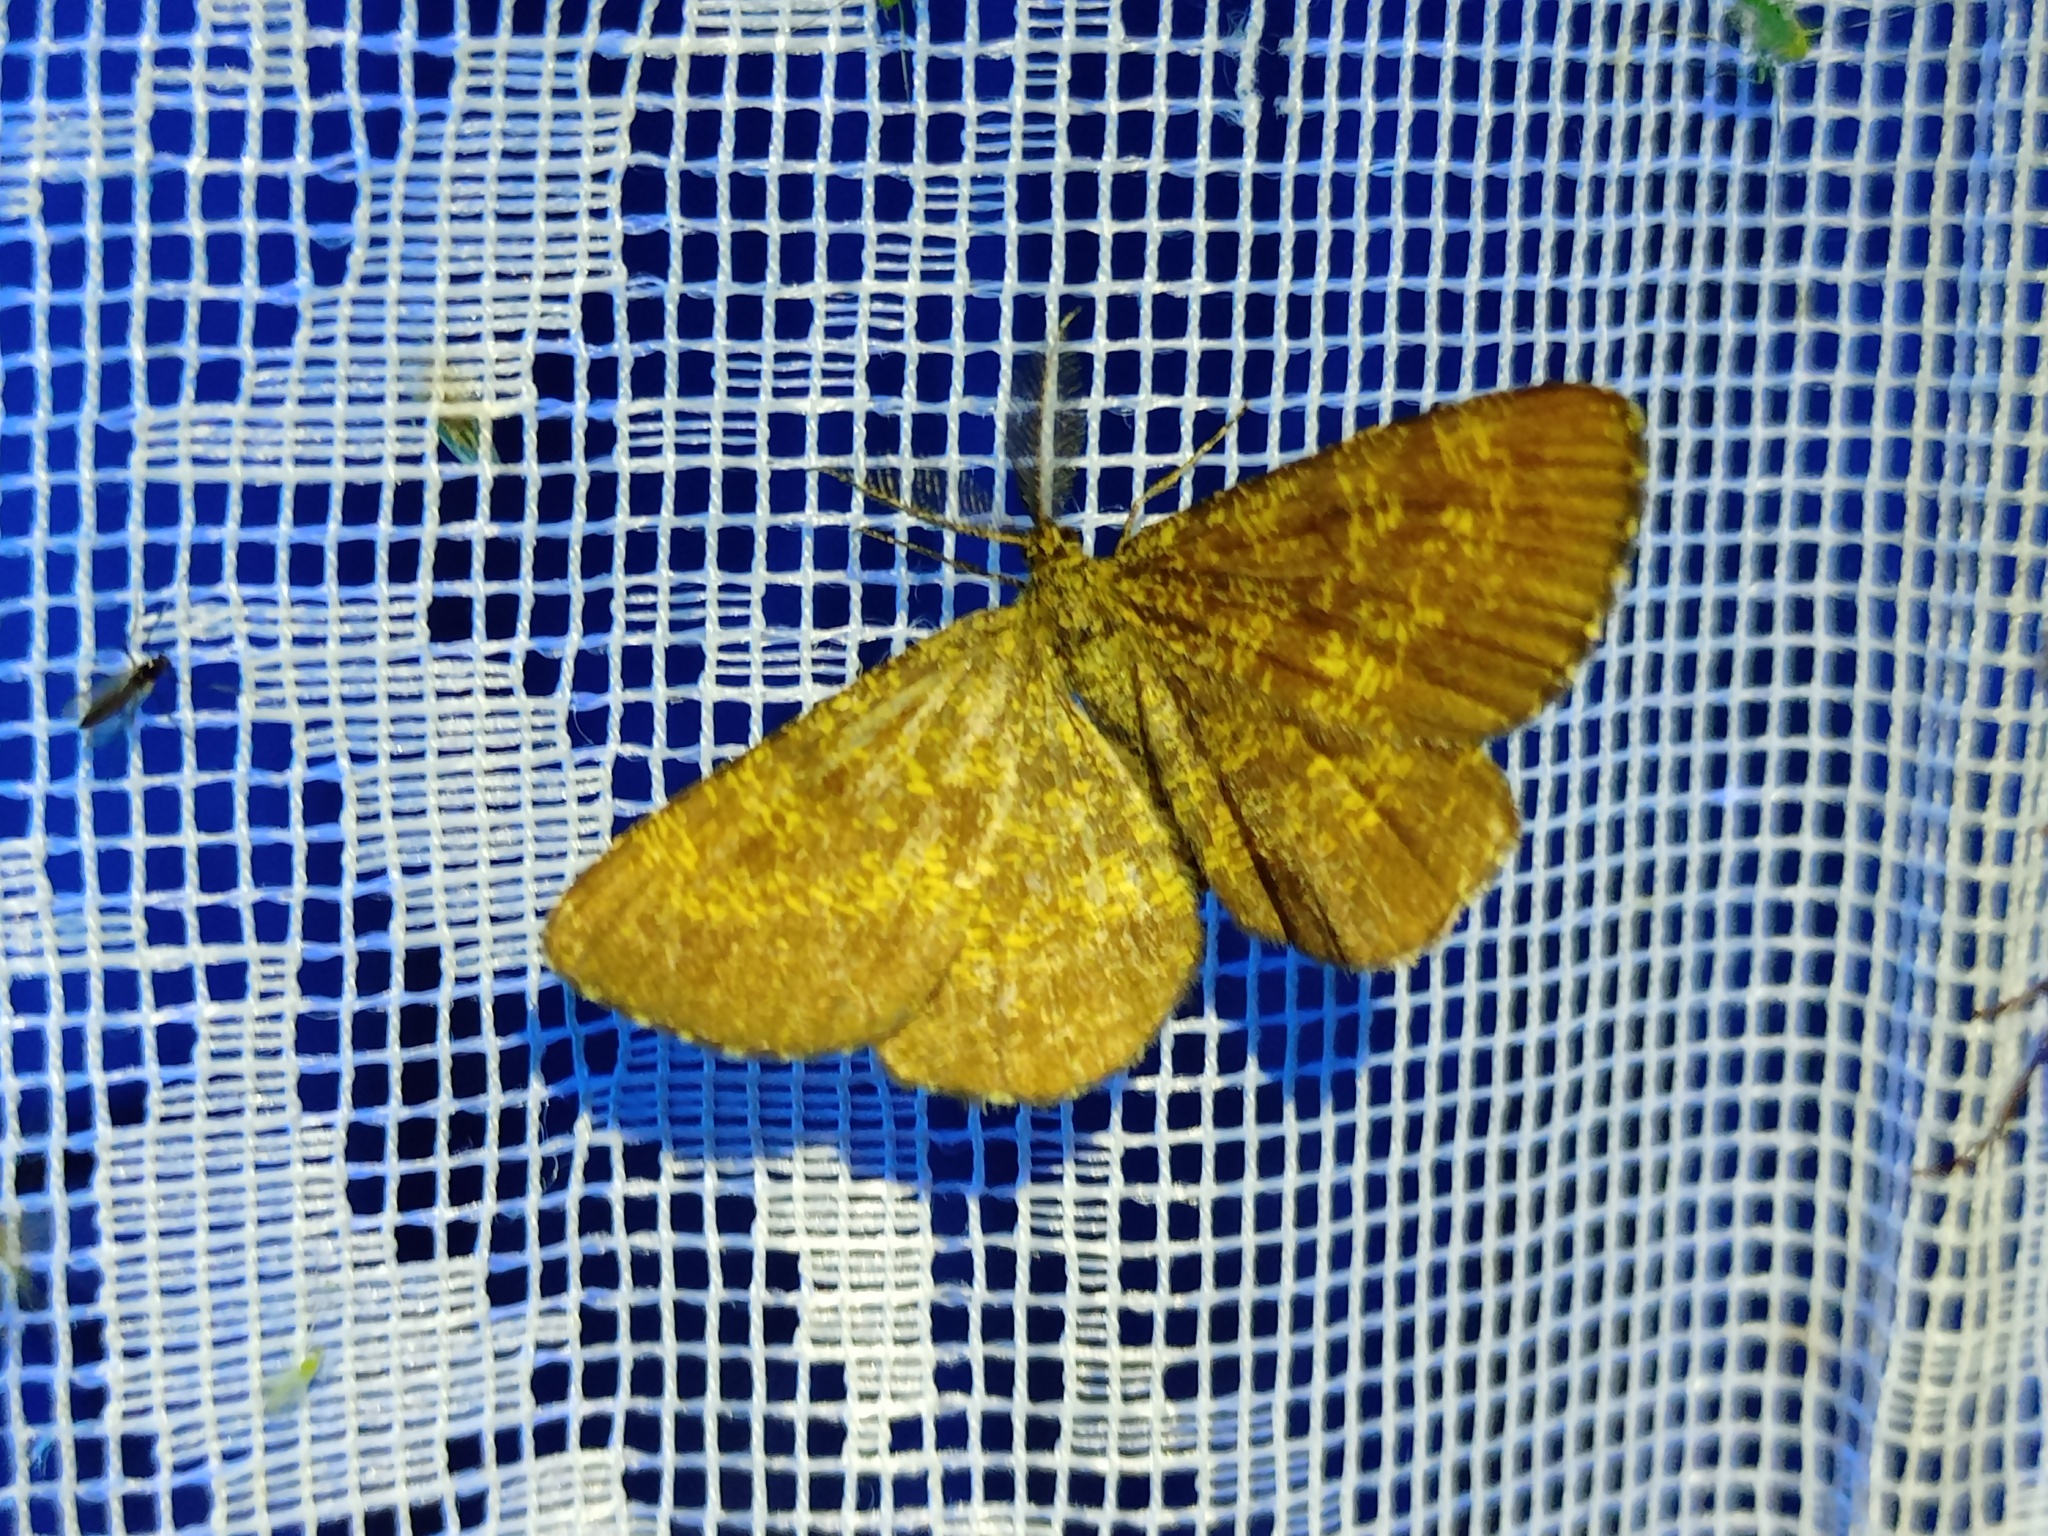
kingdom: Animalia
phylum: Arthropoda
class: Insecta
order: Lepidoptera
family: Geometridae
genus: Ematurga
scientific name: Ematurga atomaria
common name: Common heath
